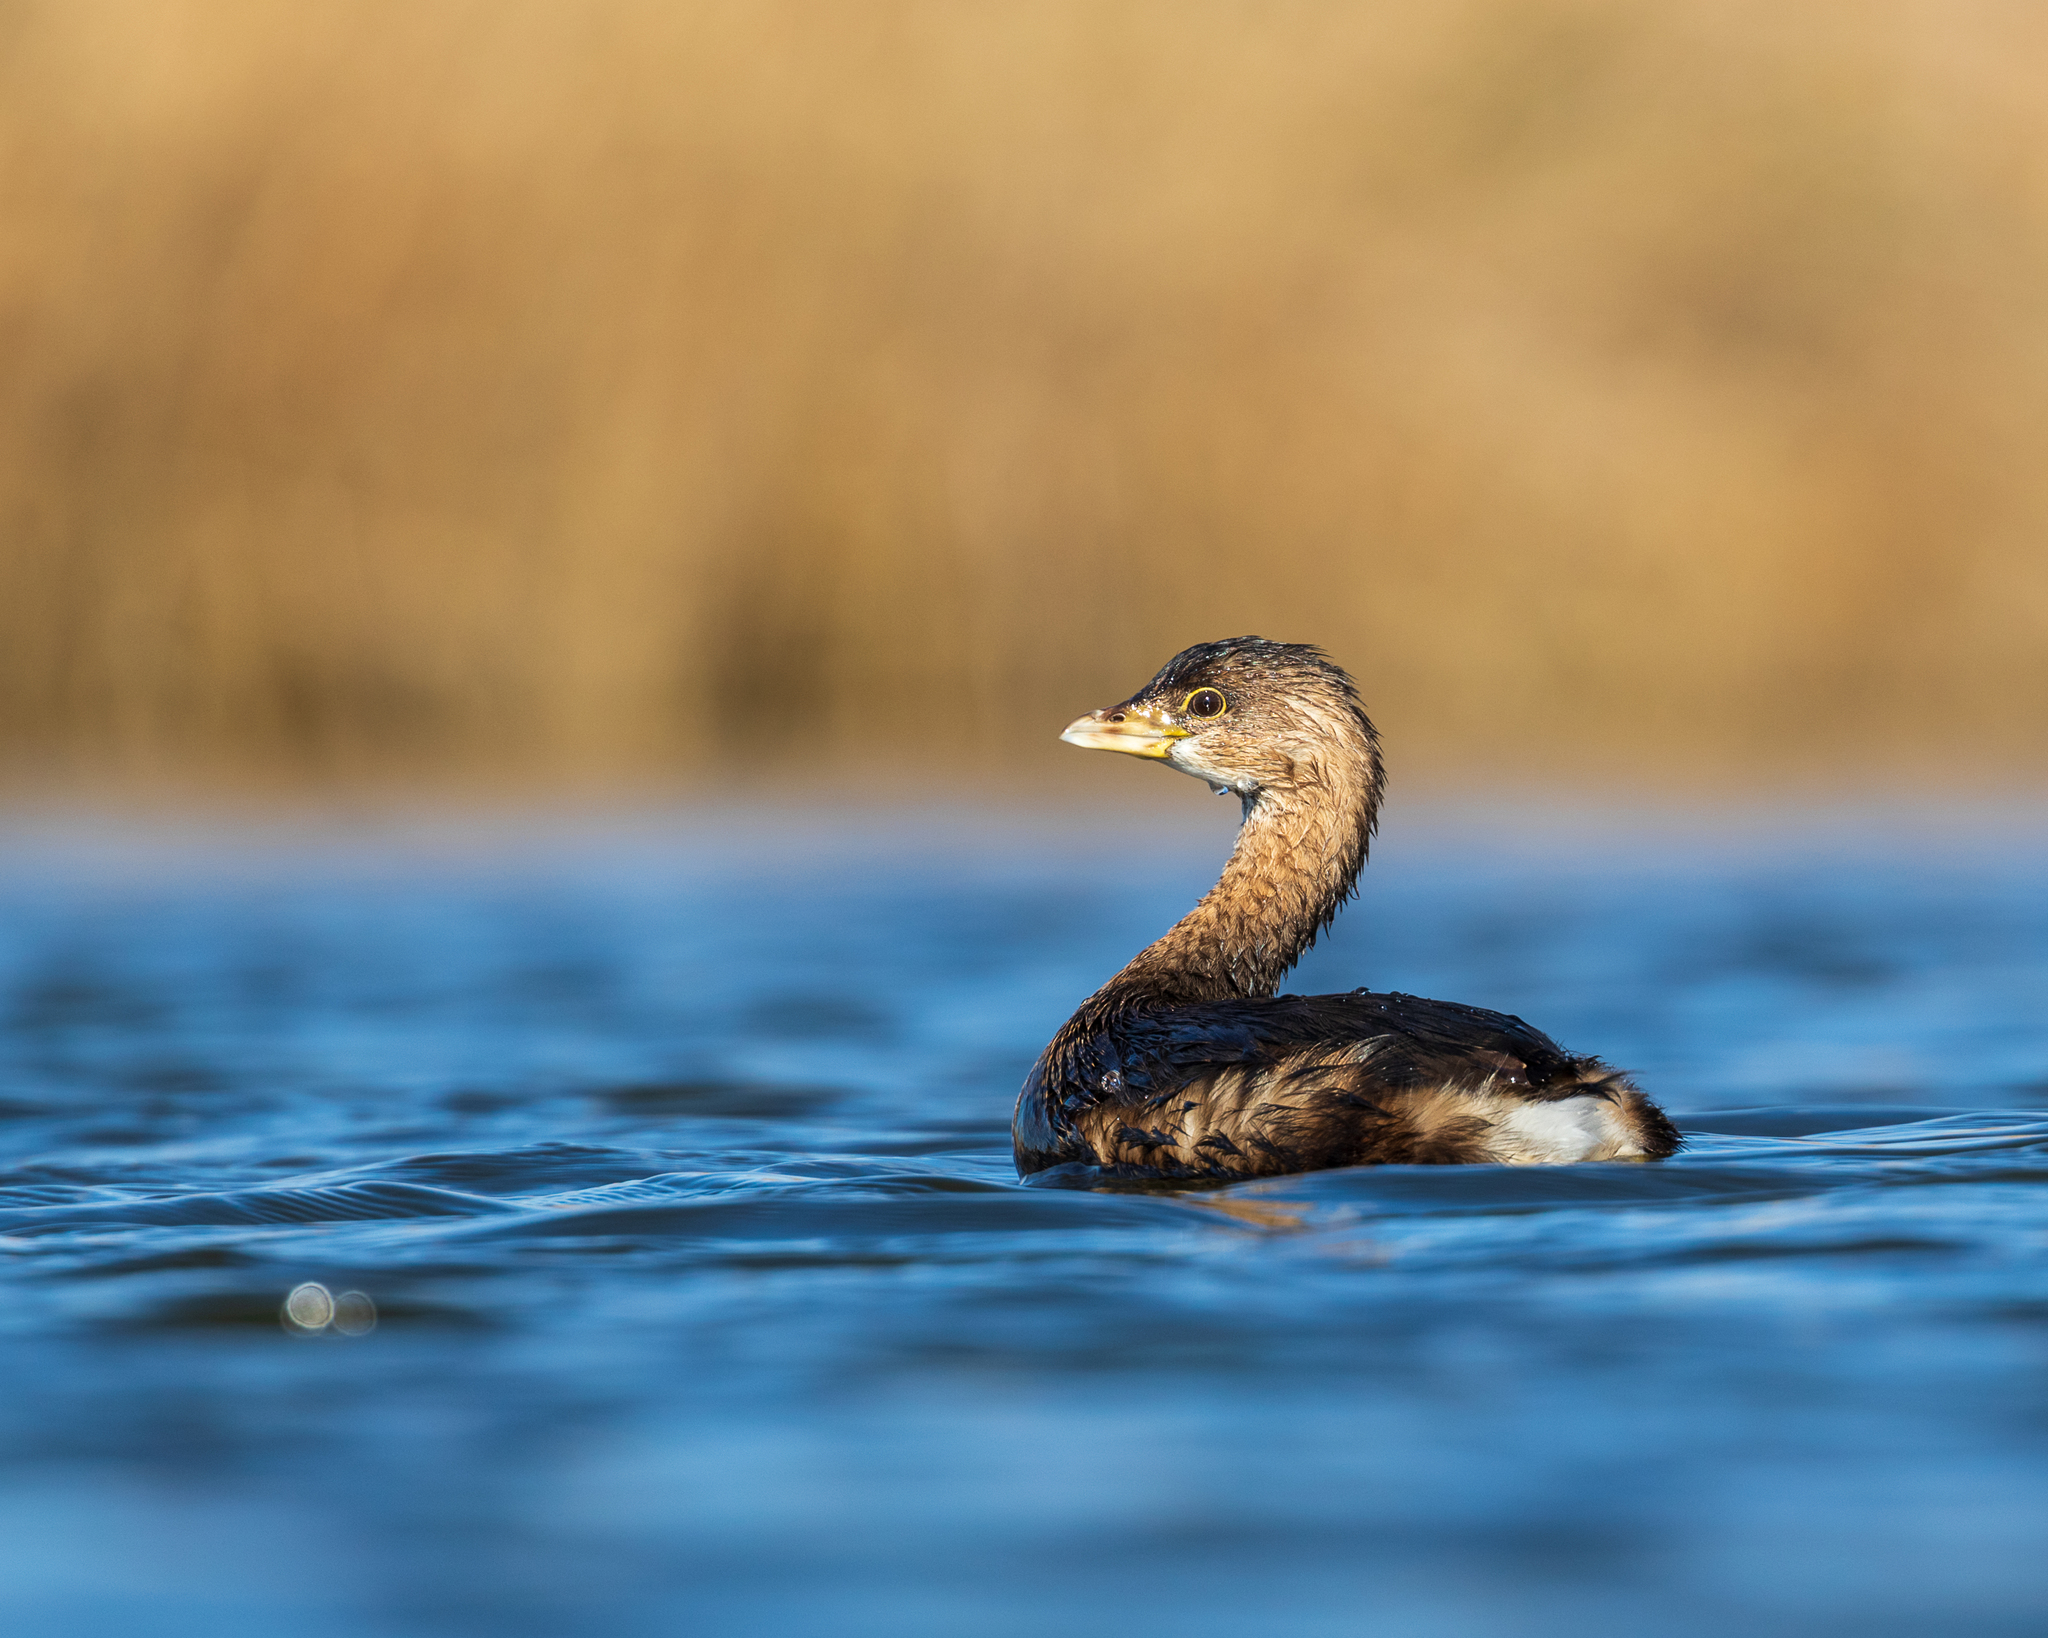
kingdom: Animalia
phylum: Chordata
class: Aves
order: Podicipediformes
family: Podicipedidae
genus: Podilymbus
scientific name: Podilymbus podiceps
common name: Pied-billed grebe
